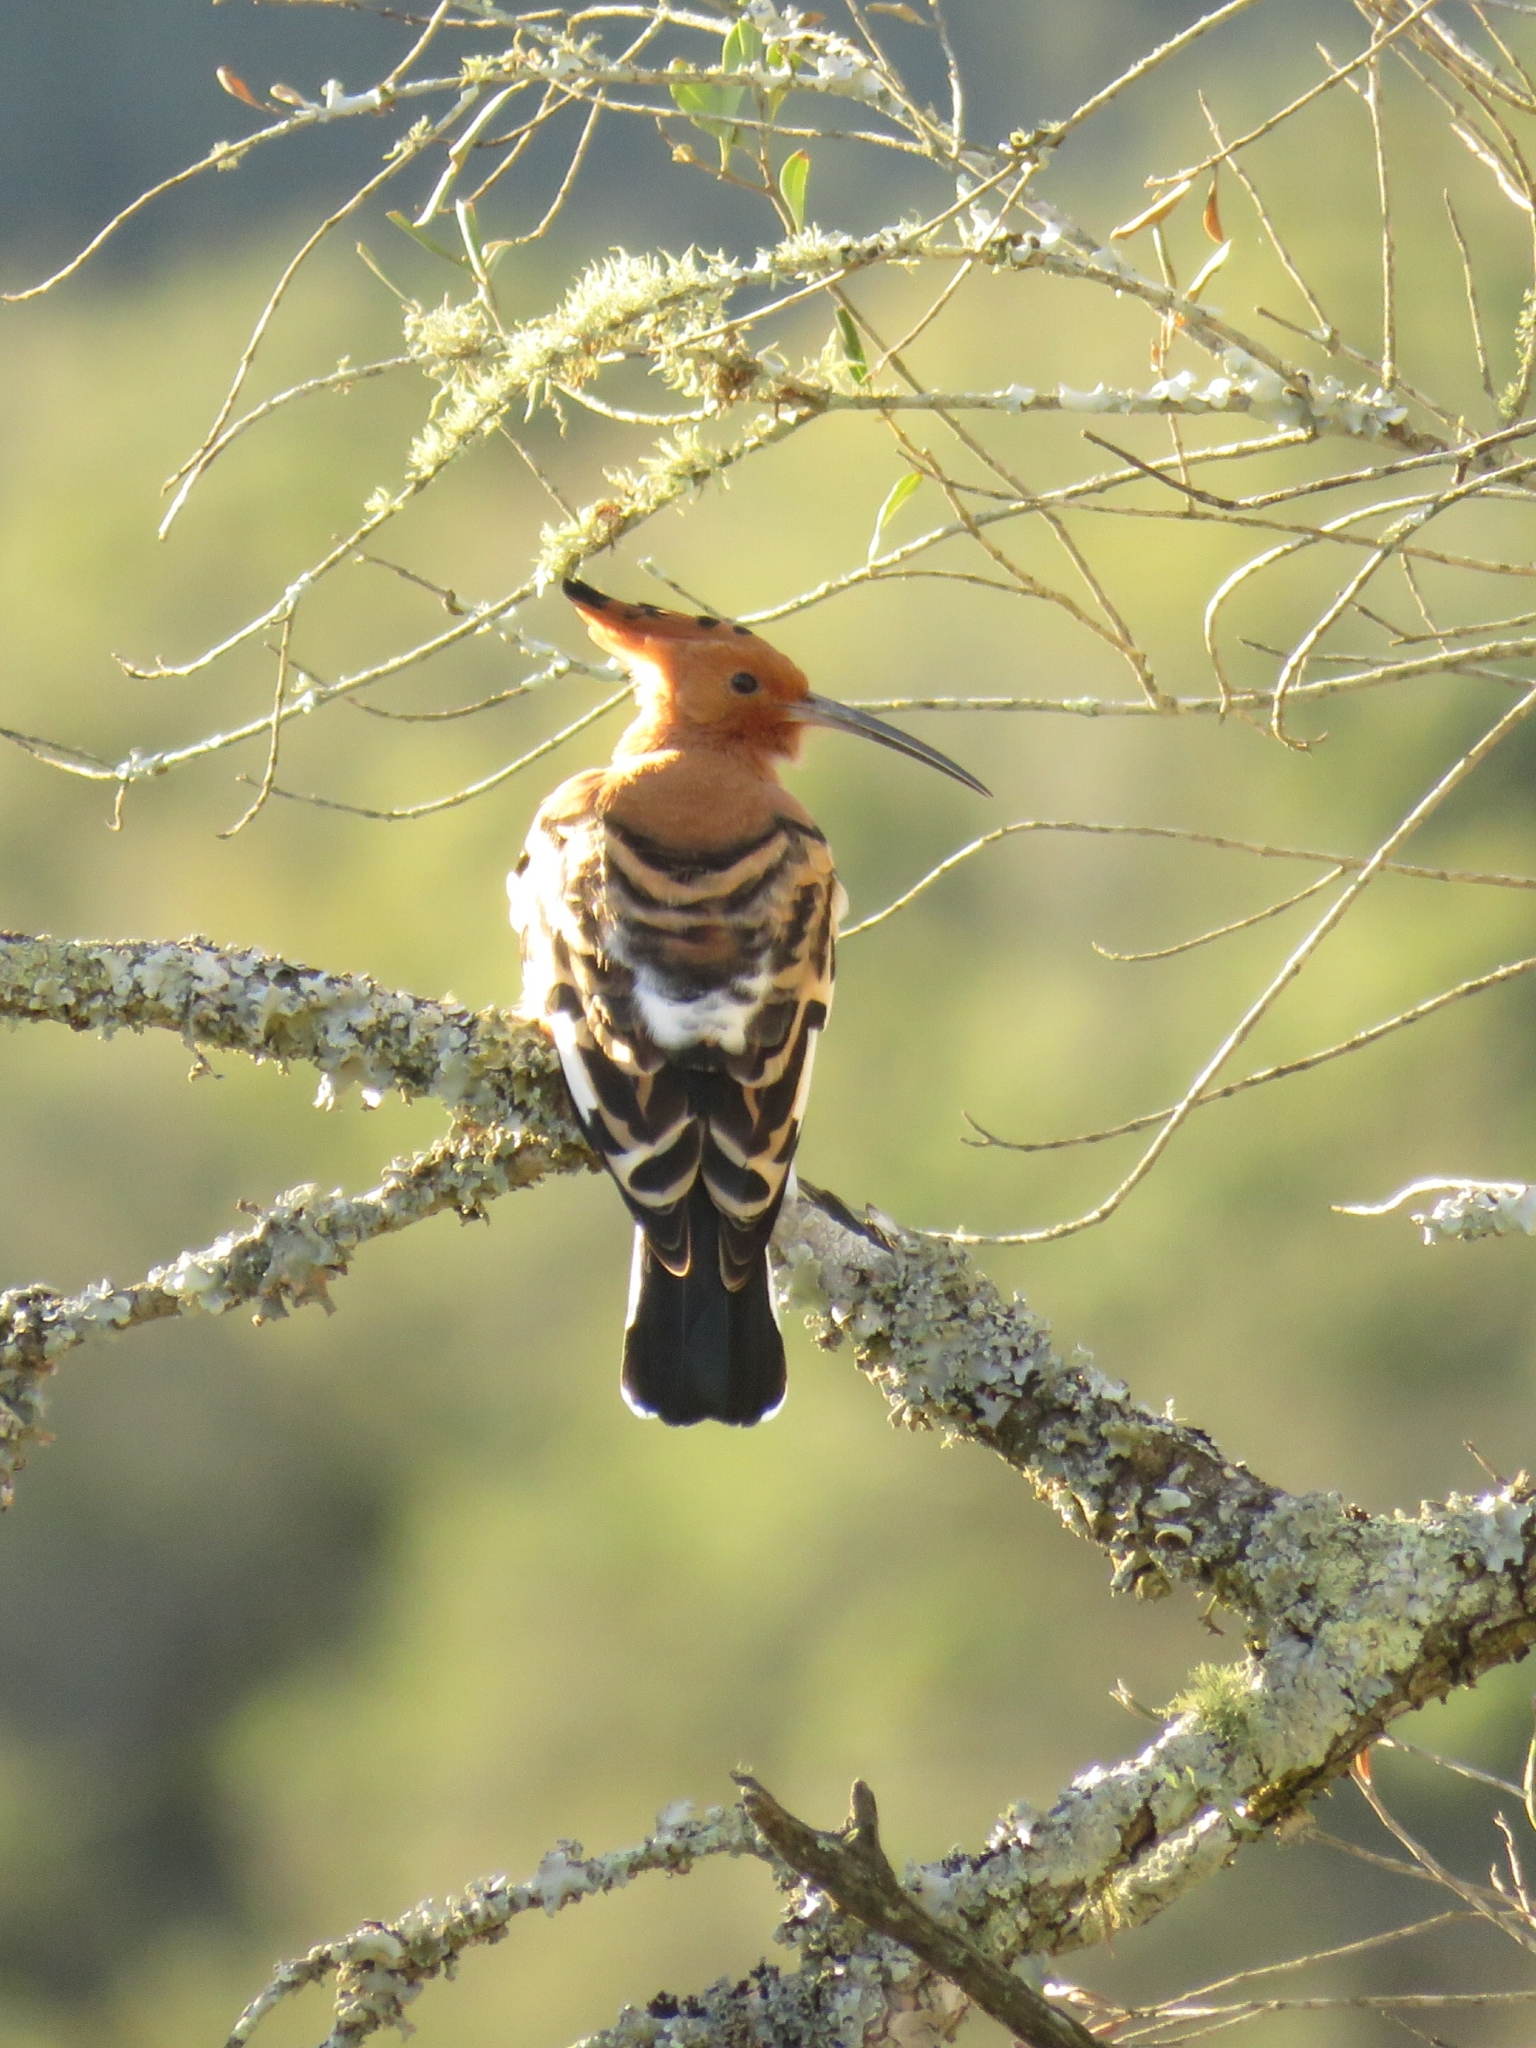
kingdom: Animalia
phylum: Chordata
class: Aves
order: Bucerotiformes
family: Upupidae
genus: Upupa
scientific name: Upupa africana
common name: African hoopoe
